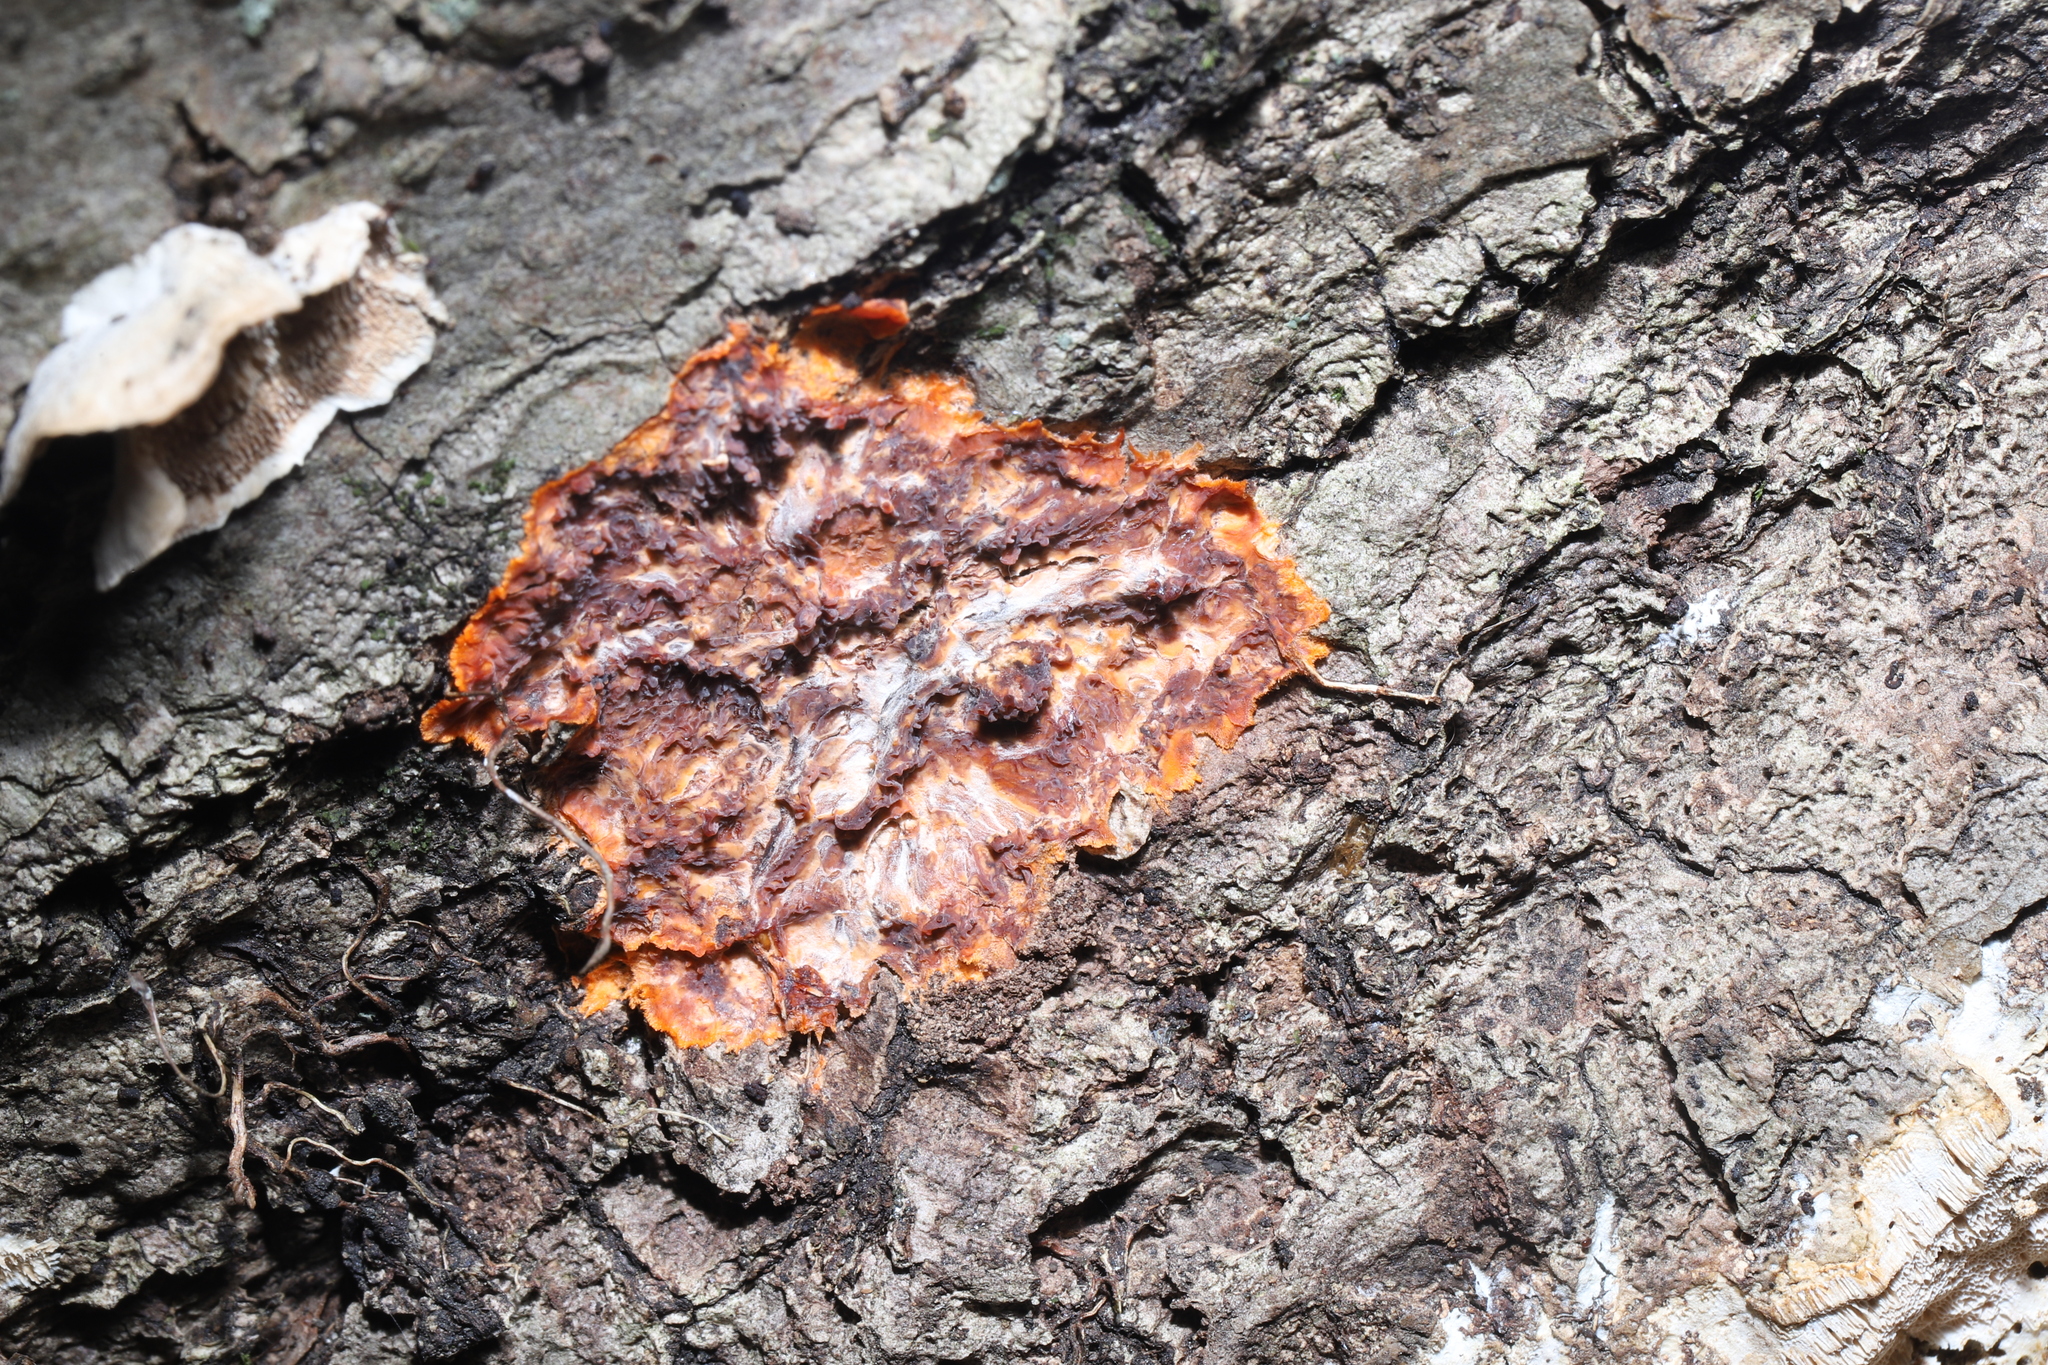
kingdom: Fungi
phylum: Basidiomycota
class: Agaricomycetes
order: Agaricales
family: Radulomycetaceae
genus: Radulomyces
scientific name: Radulomyces copelandii
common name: Asian beauty
